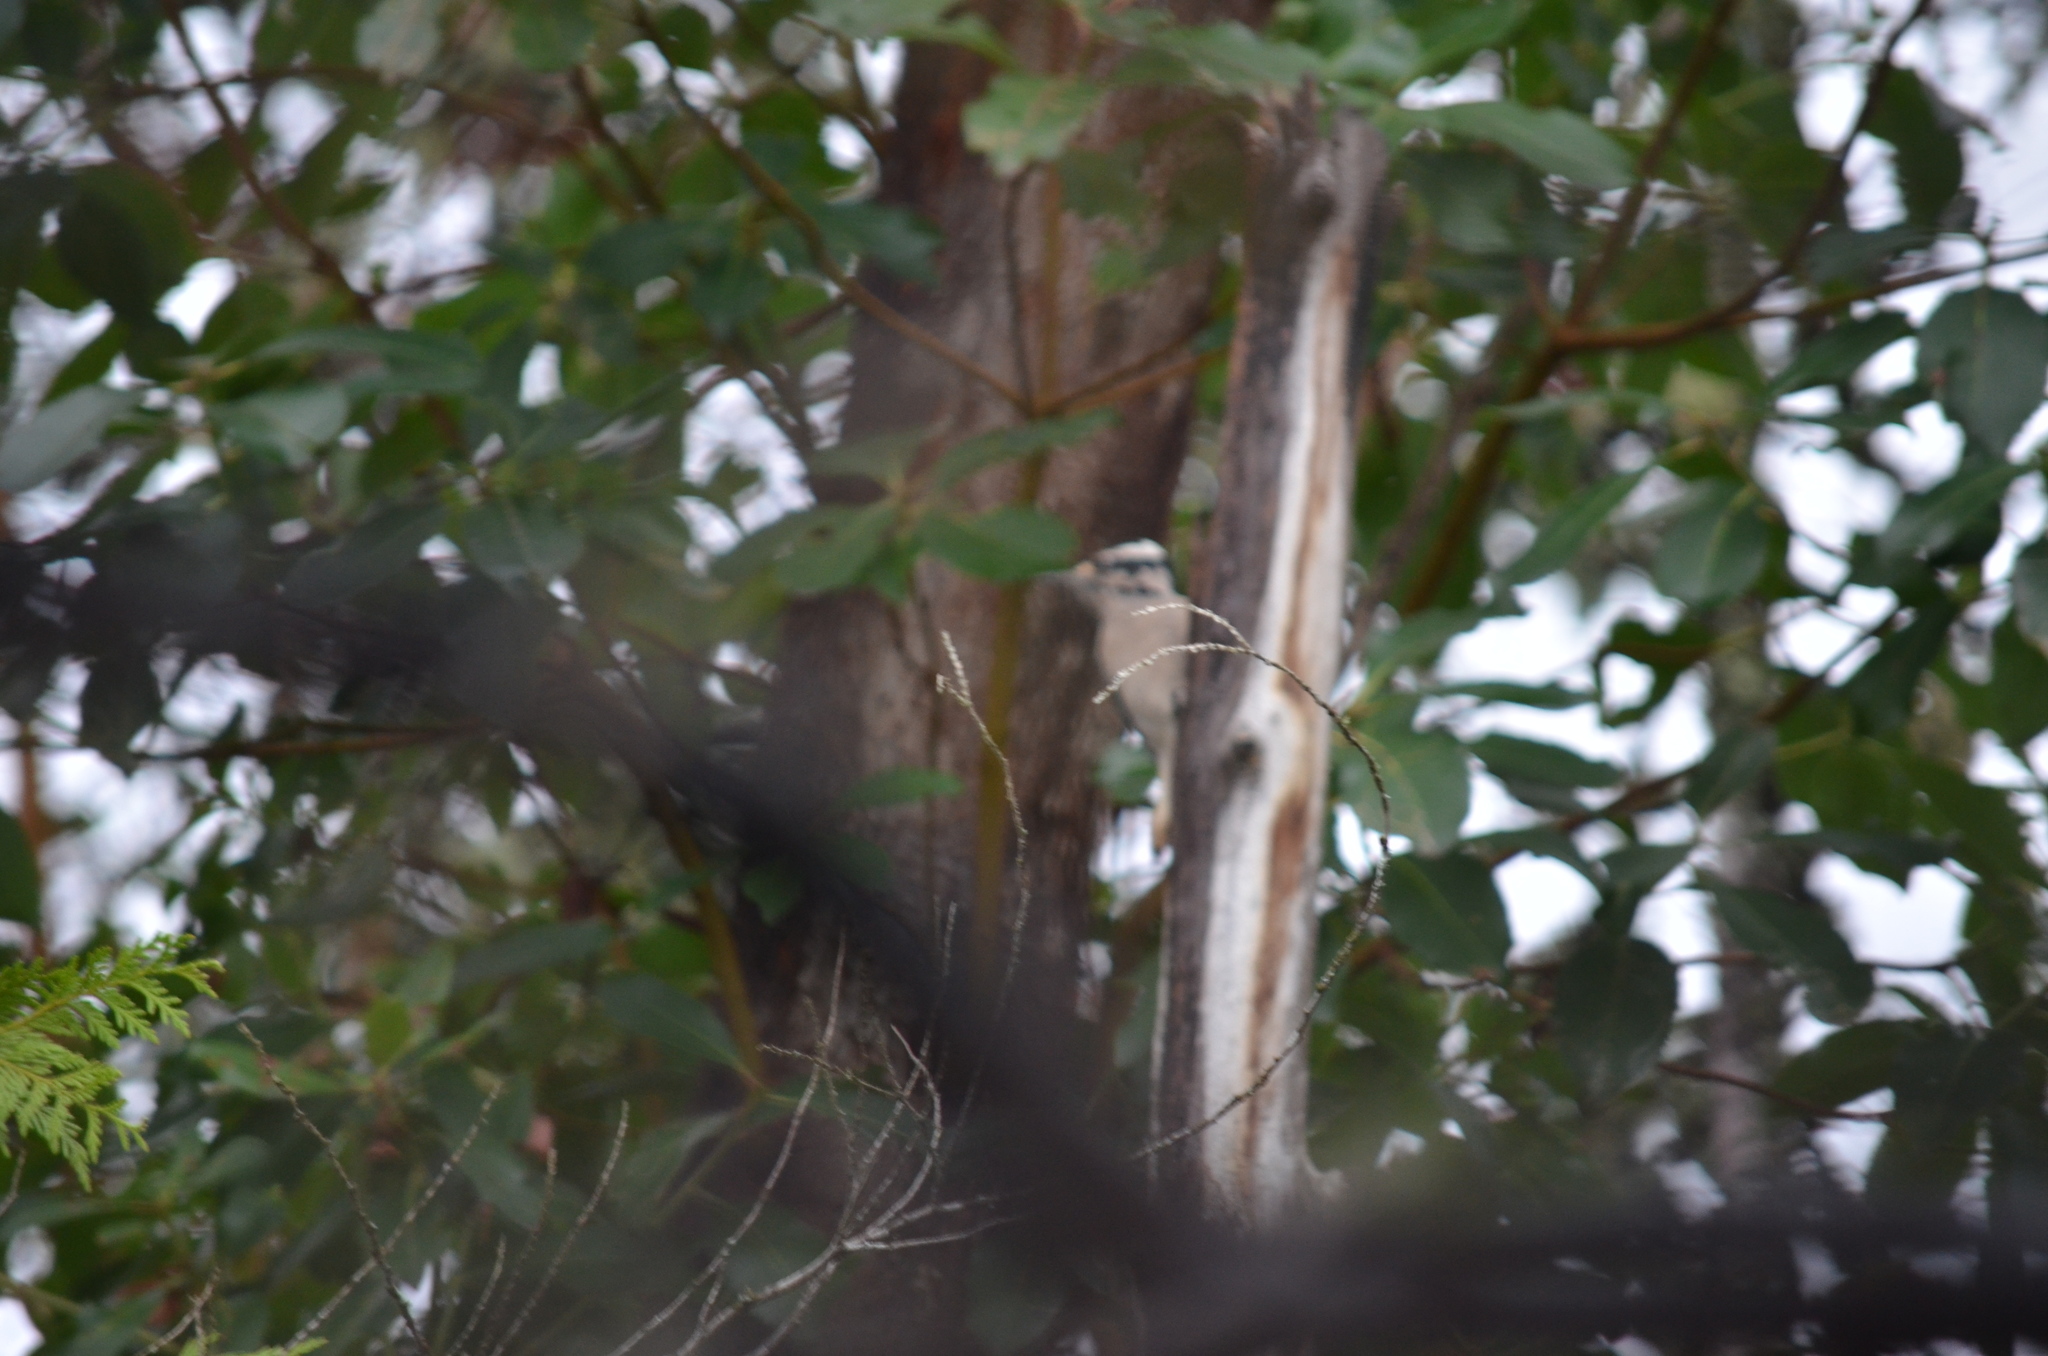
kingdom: Animalia
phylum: Chordata
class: Aves
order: Piciformes
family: Picidae
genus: Leuconotopicus
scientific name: Leuconotopicus villosus
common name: Hairy woodpecker
